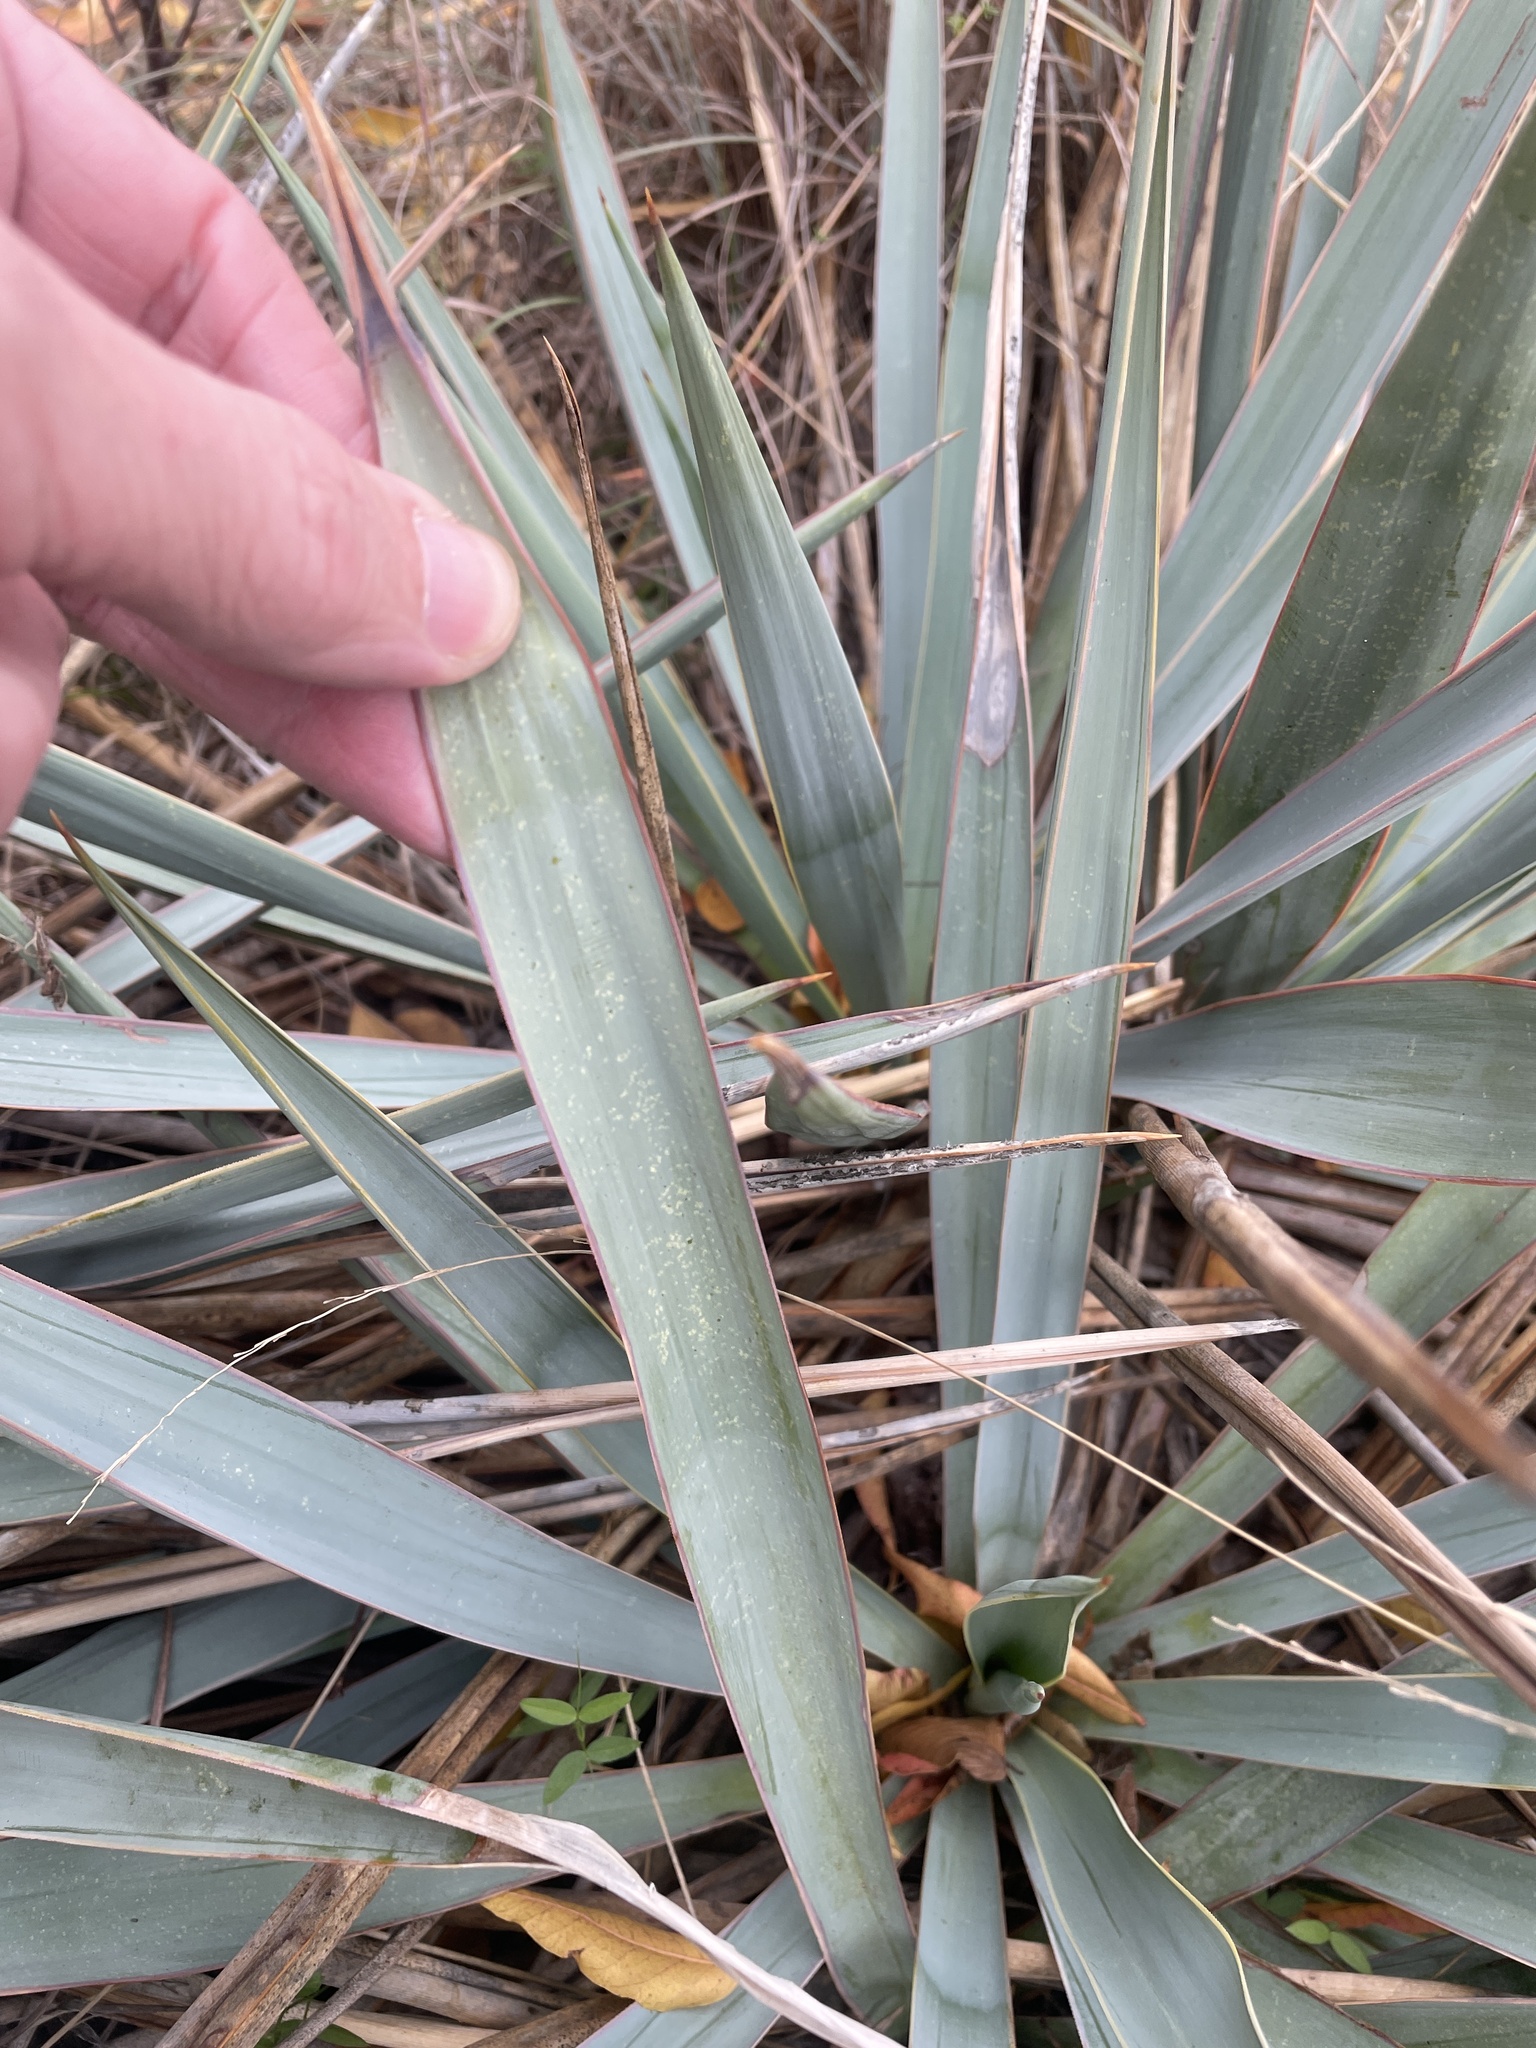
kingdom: Plantae
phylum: Tracheophyta
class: Liliopsida
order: Asparagales
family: Asparagaceae
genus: Yucca
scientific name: Yucca pallida
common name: Pale leaf yucca
